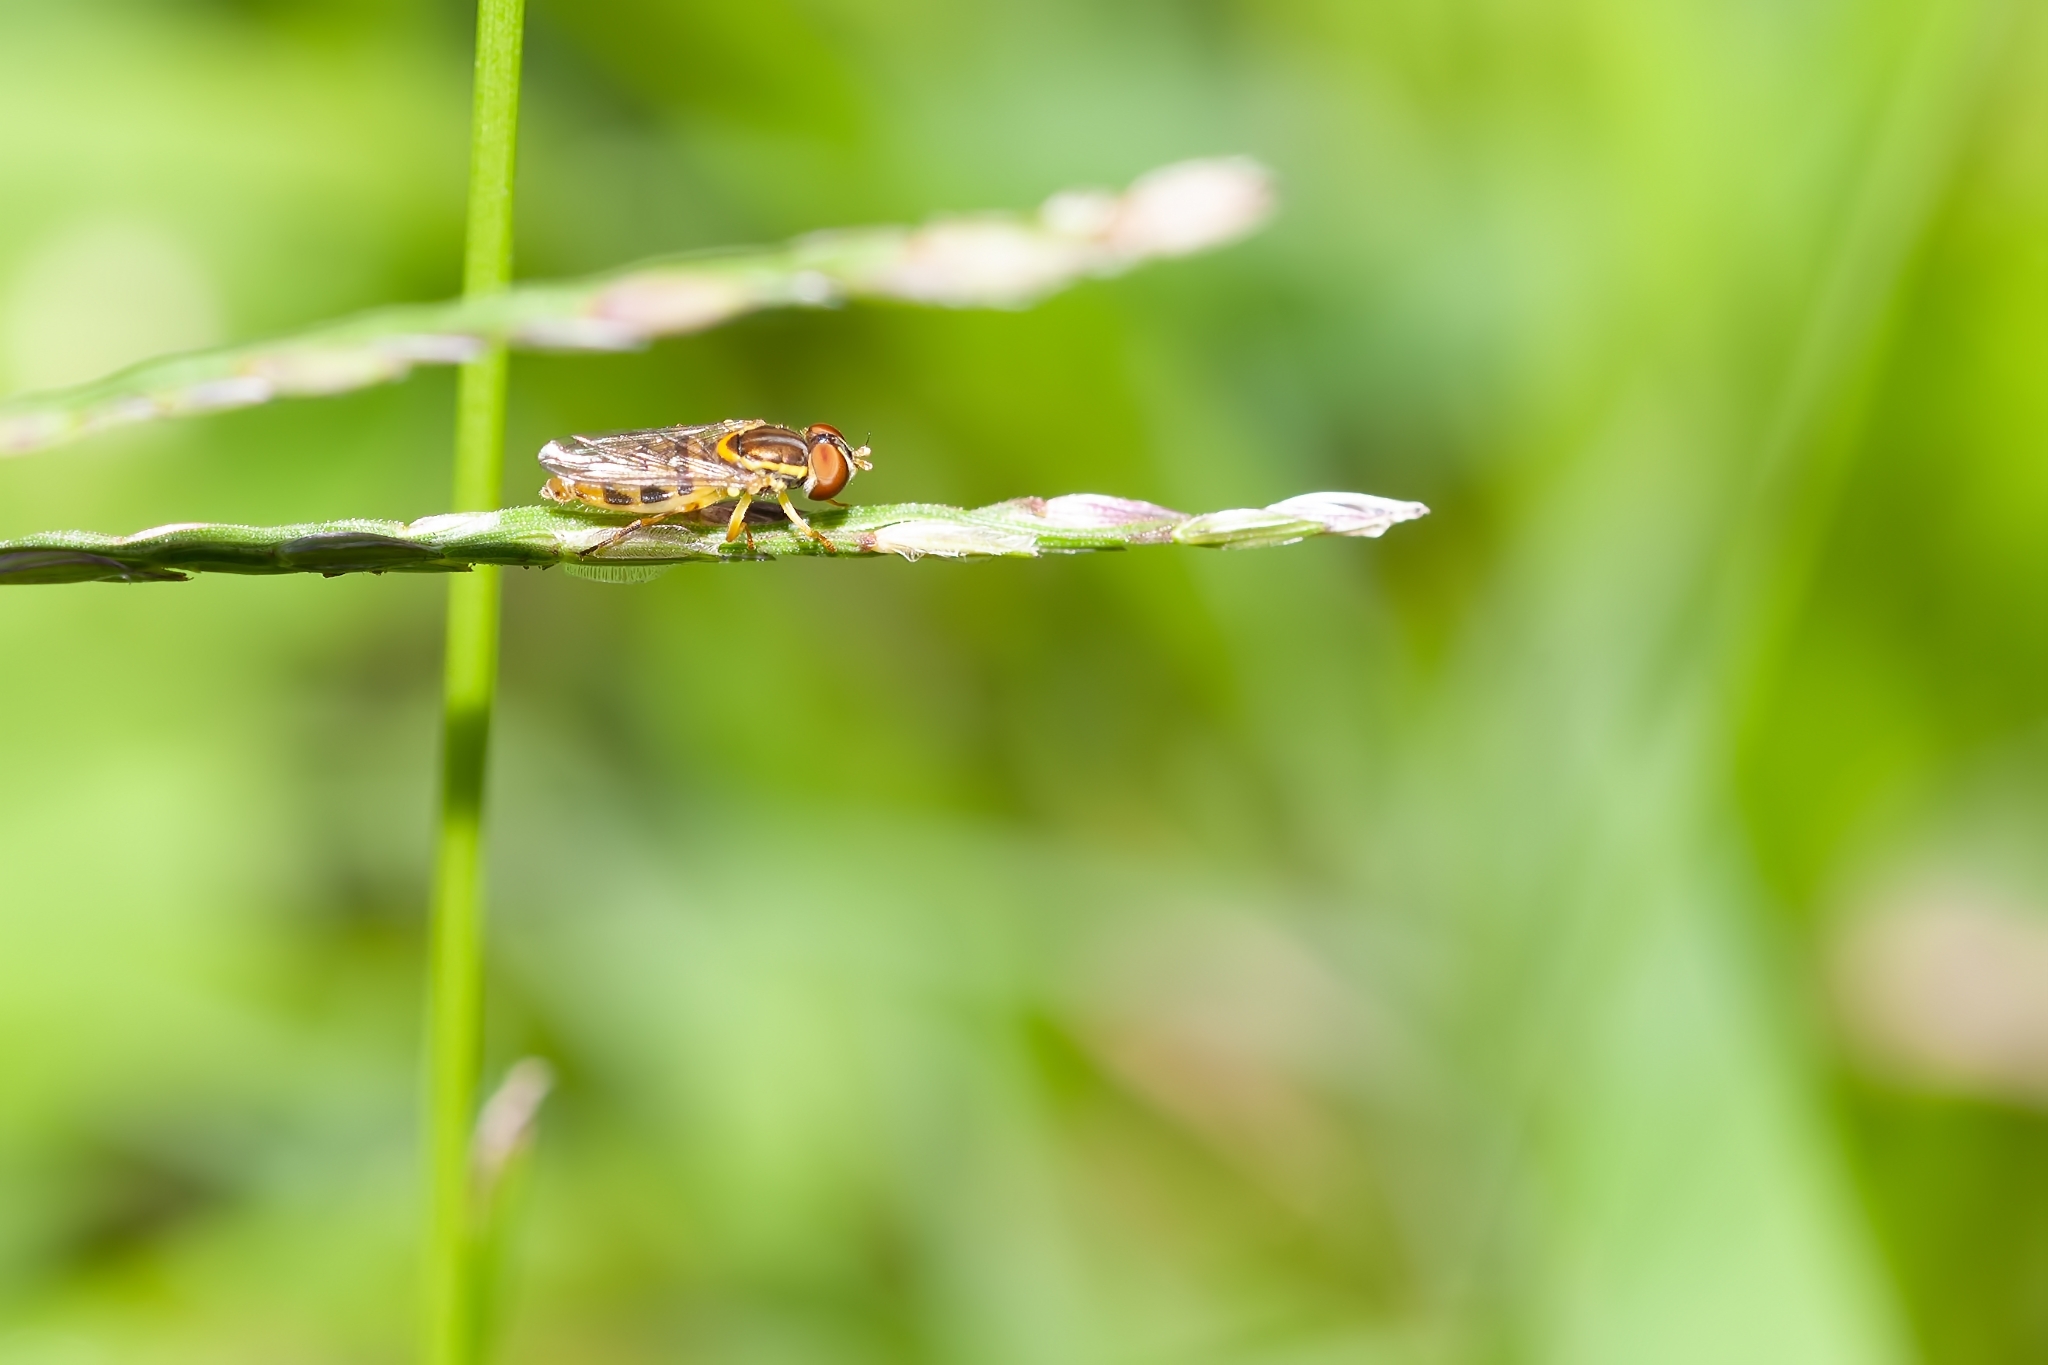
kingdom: Animalia
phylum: Arthropoda
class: Insecta
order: Diptera
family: Syrphidae
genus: Toxomerus
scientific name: Toxomerus floralis
